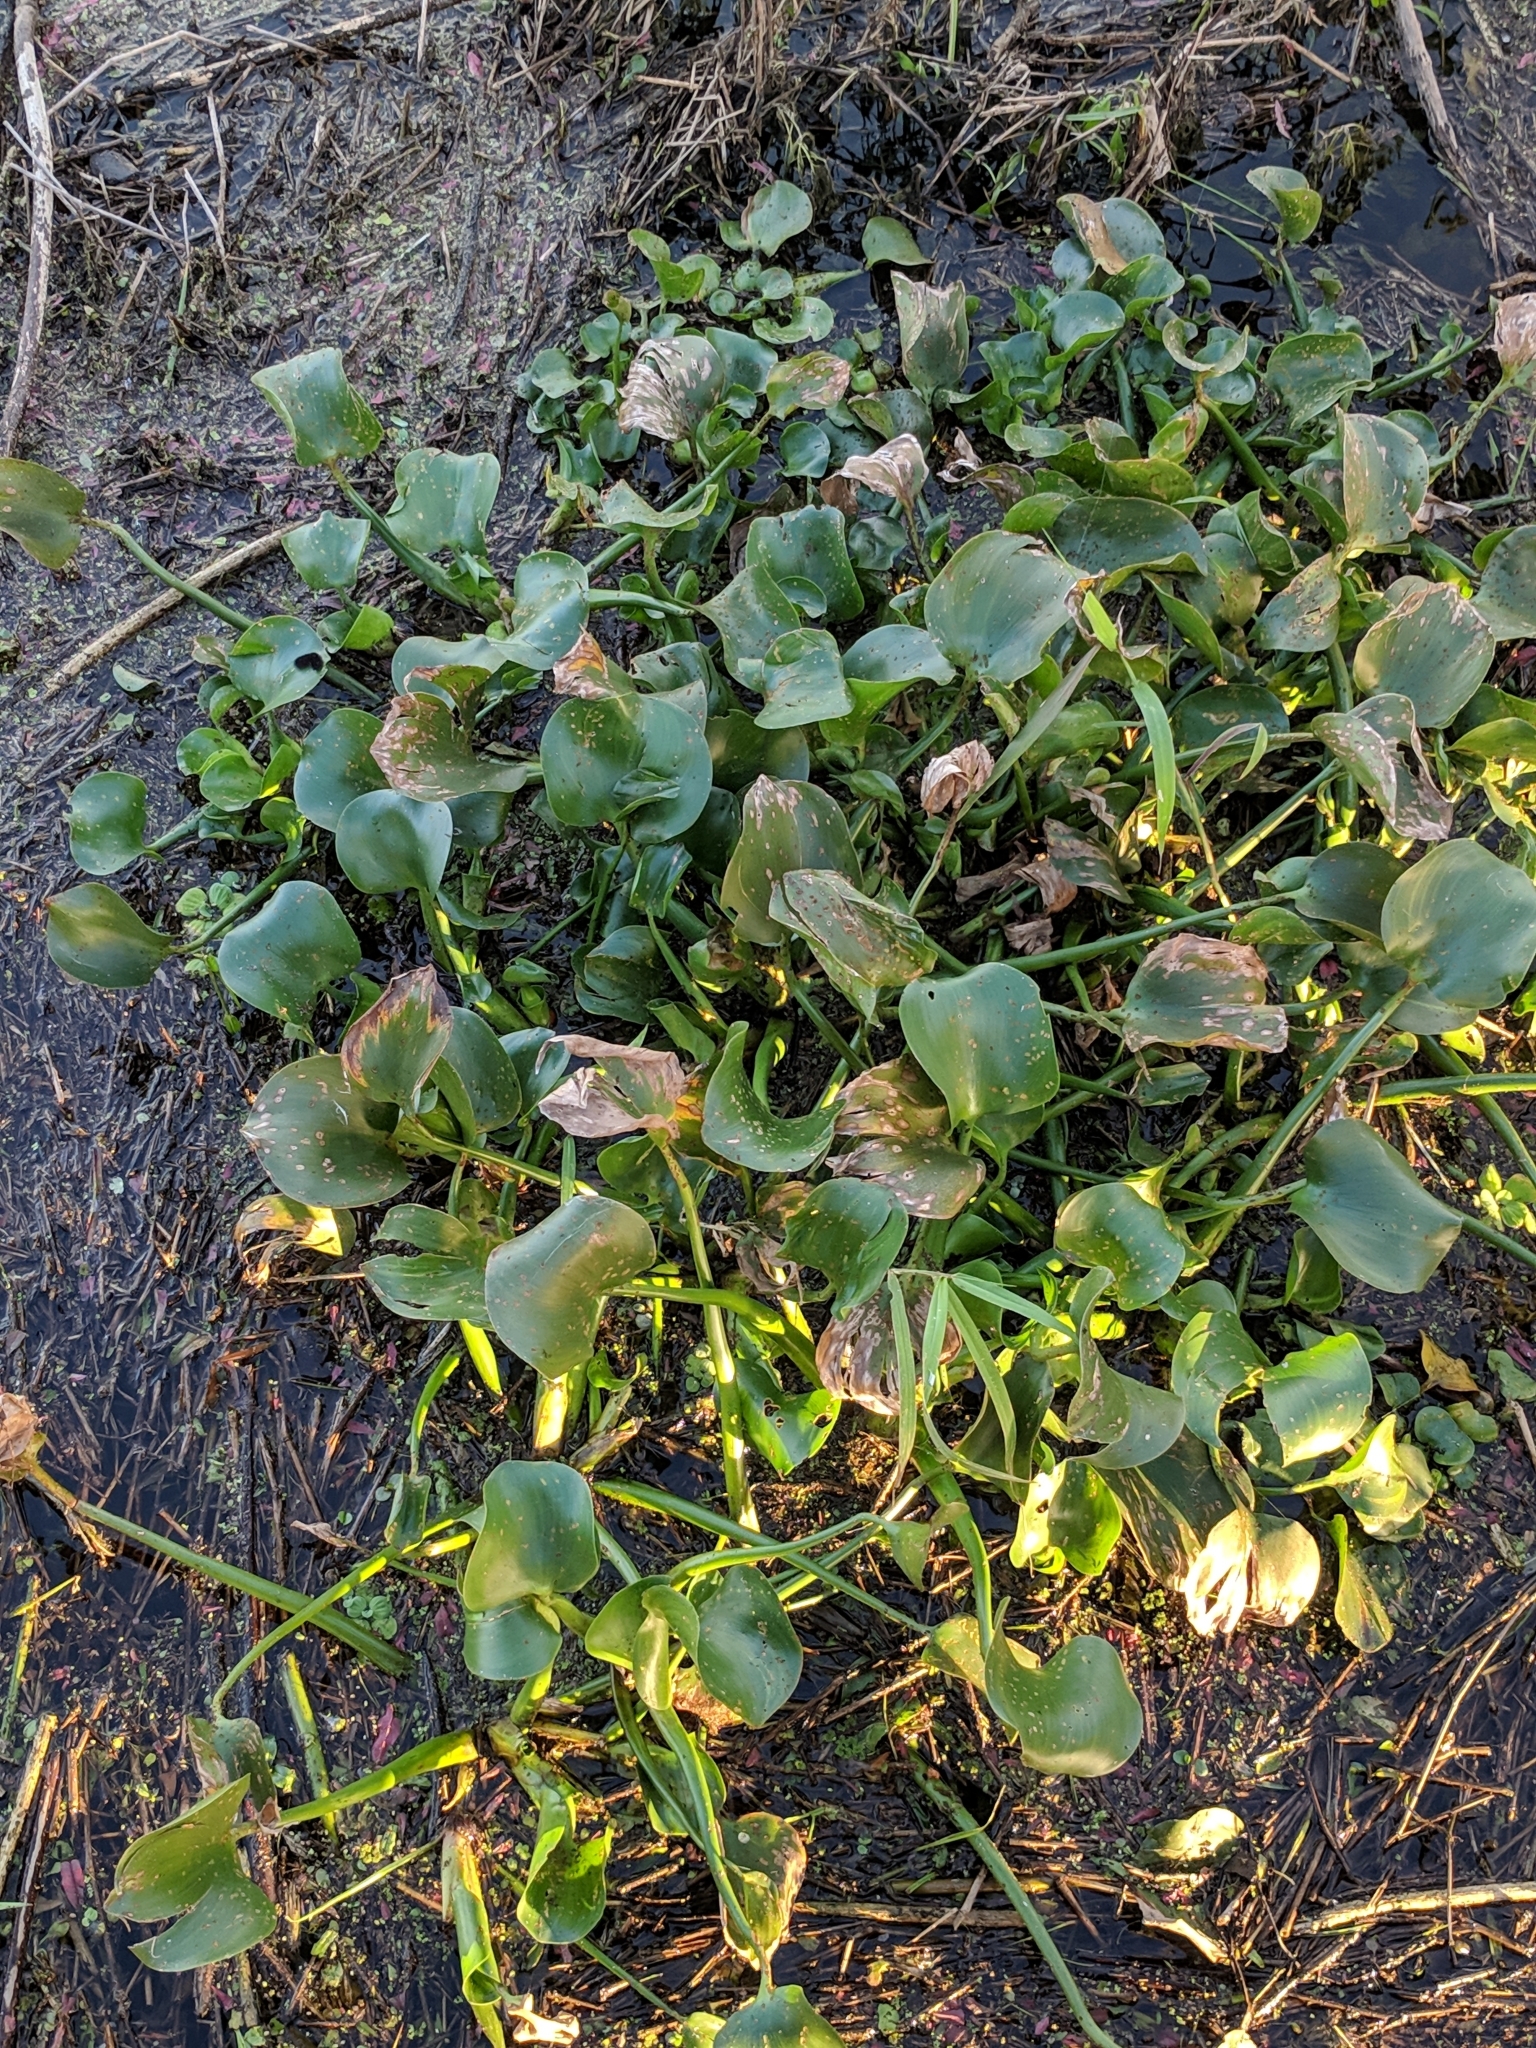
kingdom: Plantae
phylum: Tracheophyta
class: Liliopsida
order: Commelinales
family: Pontederiaceae
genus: Pontederia
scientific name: Pontederia crassipes
